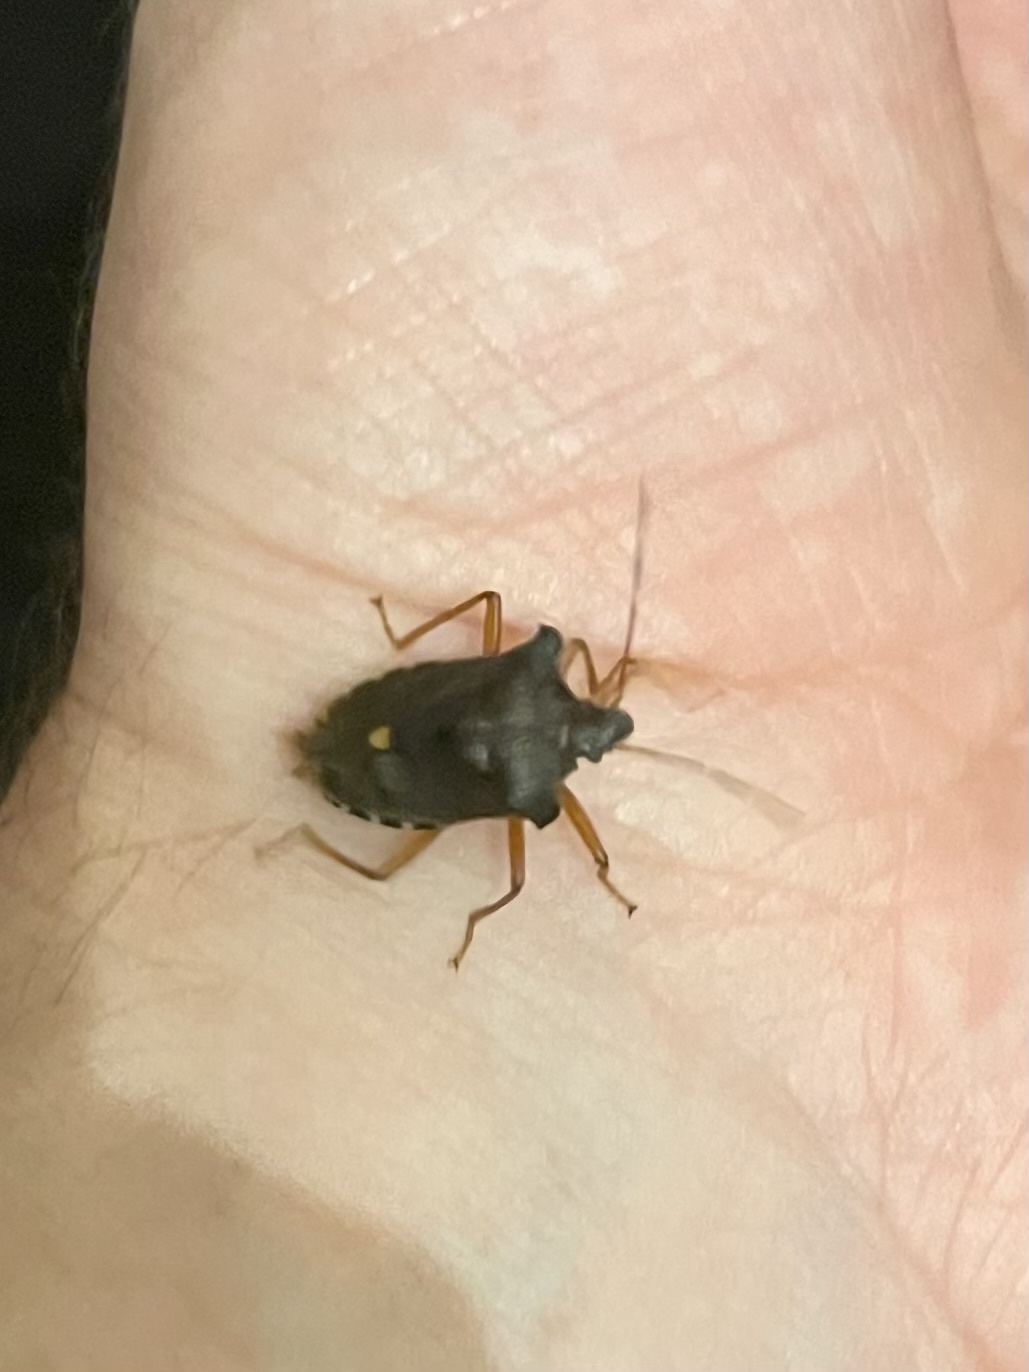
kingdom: Animalia
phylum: Arthropoda
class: Insecta
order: Hemiptera
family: Pentatomidae
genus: Pentatoma
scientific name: Pentatoma rufipes
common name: Forest bug
